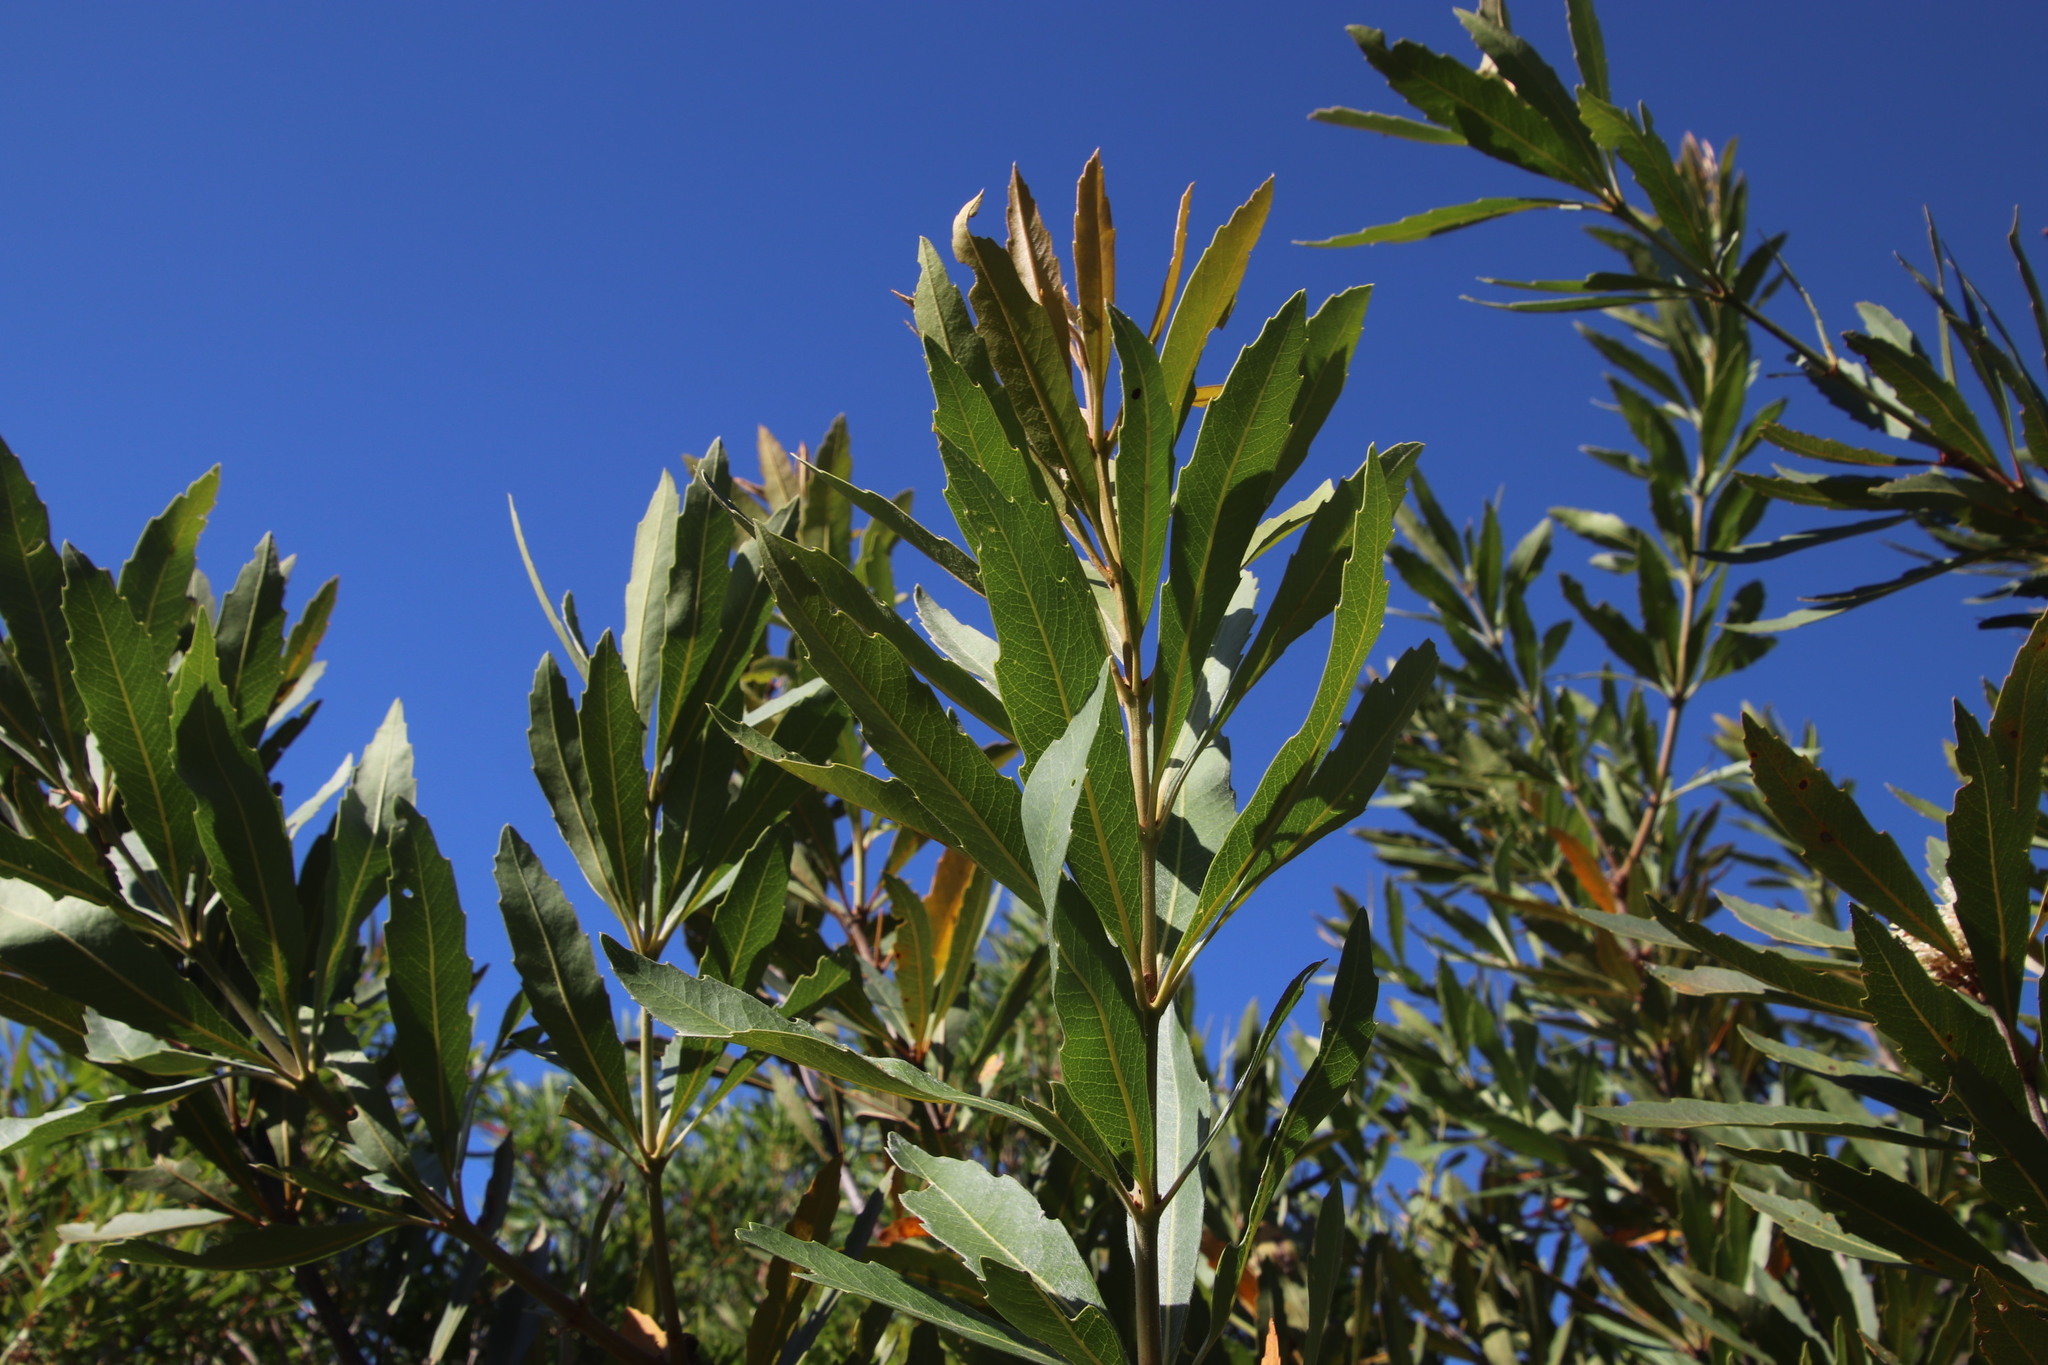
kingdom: Plantae
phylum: Tracheophyta
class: Magnoliopsida
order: Proteales
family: Proteaceae
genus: Brabejum
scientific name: Brabejum stellatifolium
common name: Wild almond
